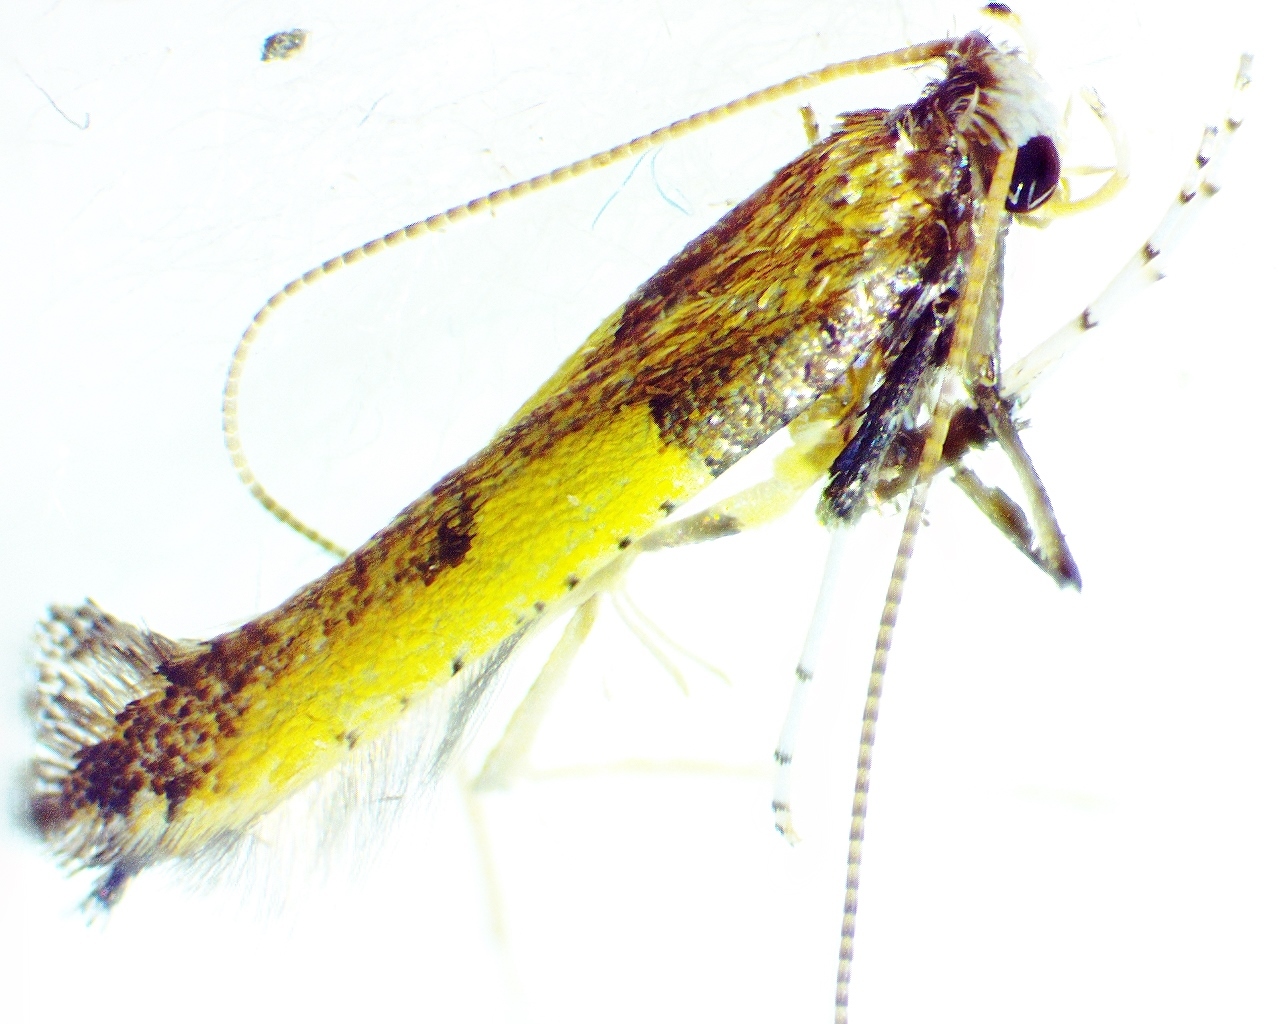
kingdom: Animalia
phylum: Arthropoda
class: Insecta
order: Lepidoptera
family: Gracillariidae
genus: Caloptilia
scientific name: Caloptilia azaleella
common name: Azalea leafminer
